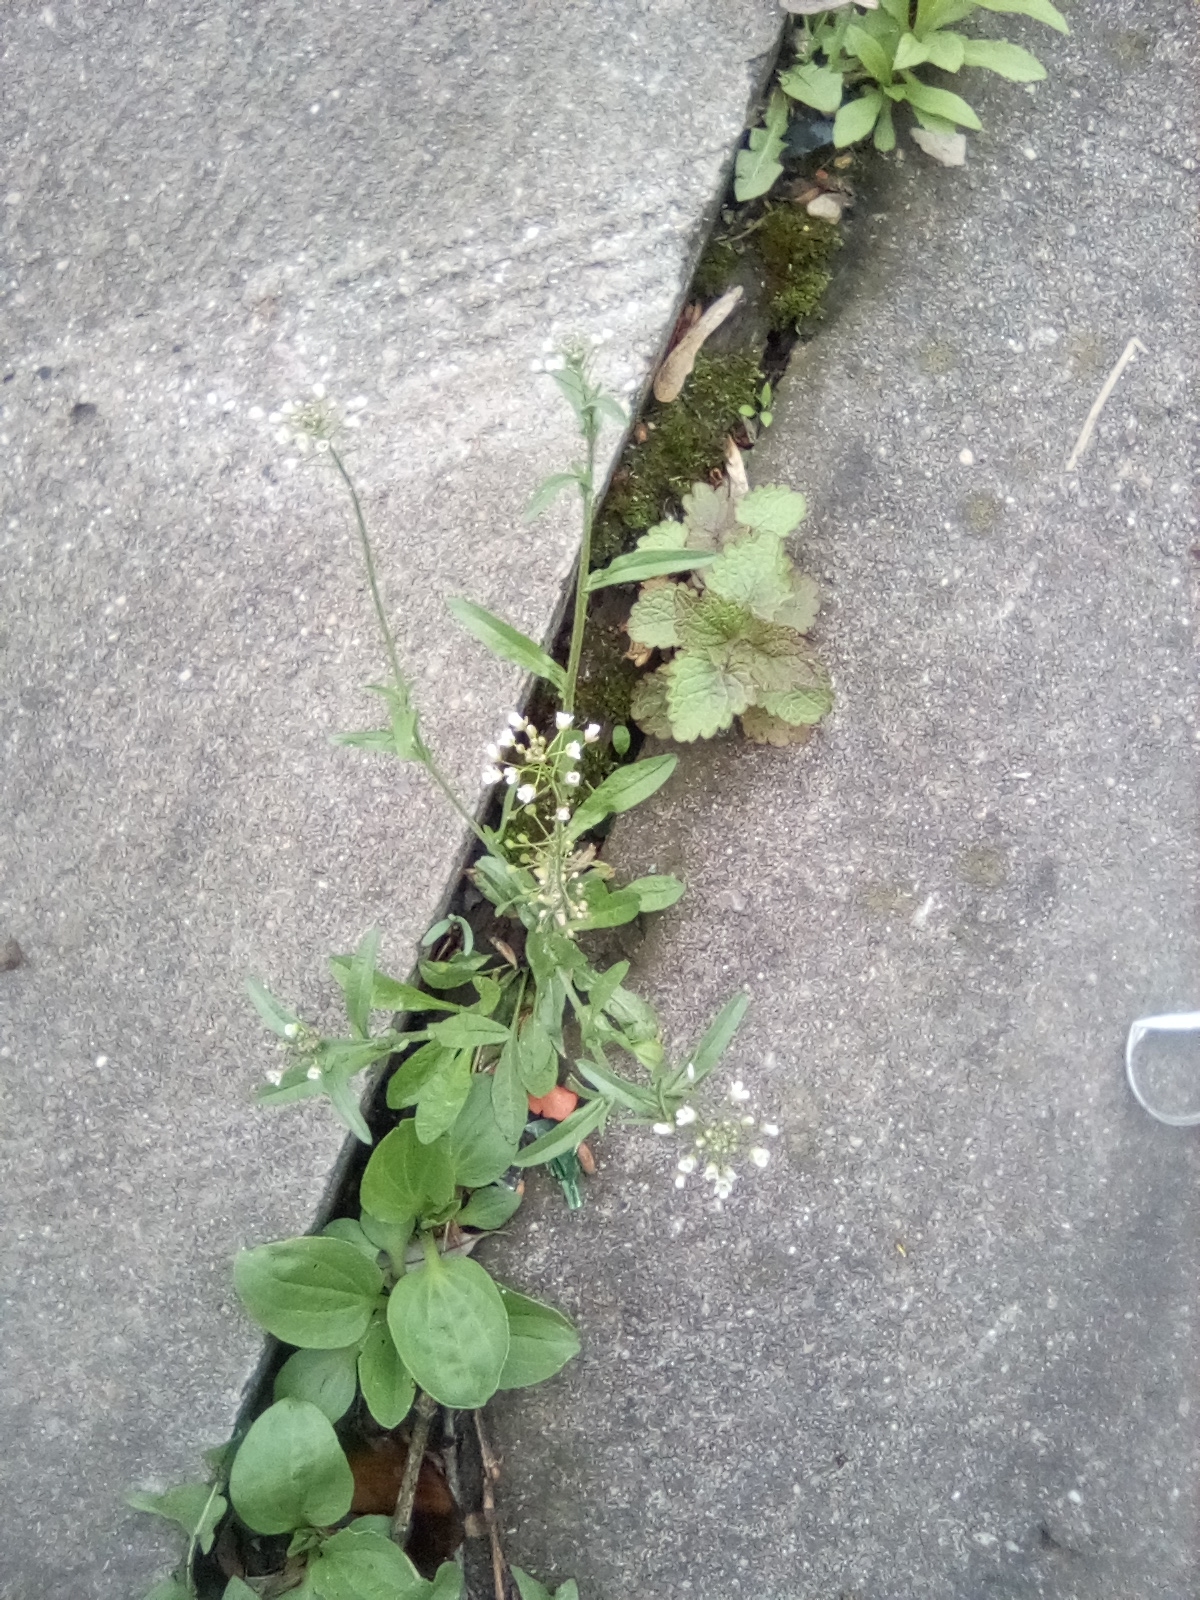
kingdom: Plantae
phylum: Tracheophyta
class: Magnoliopsida
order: Brassicales
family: Brassicaceae
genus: Capsella
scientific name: Capsella bursa-pastoris
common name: Shepherd's purse
